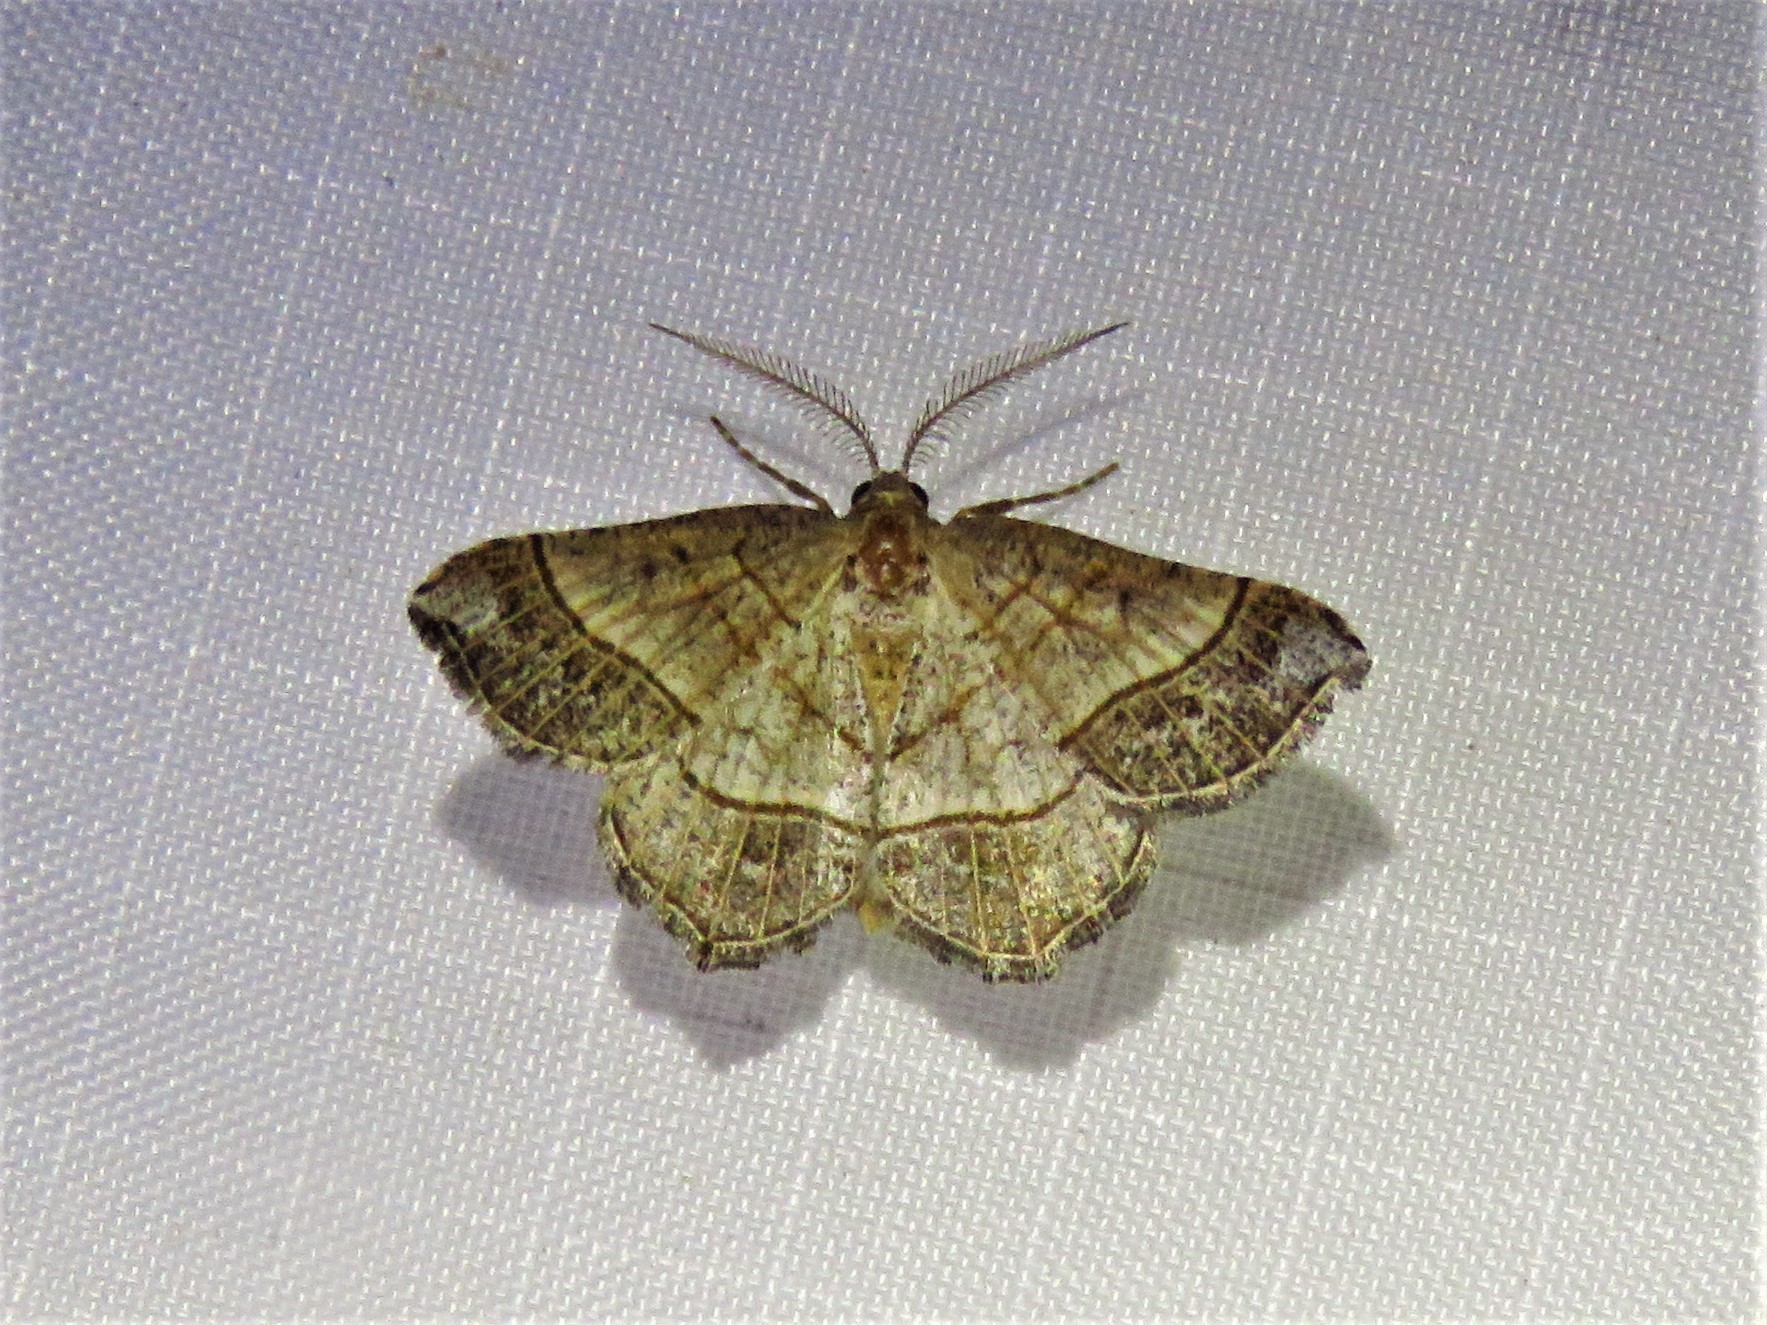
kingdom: Animalia
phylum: Arthropoda
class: Insecta
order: Lepidoptera
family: Geometridae
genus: Eumacaria
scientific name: Eumacaria madopata
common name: Brown-bordered geometer
